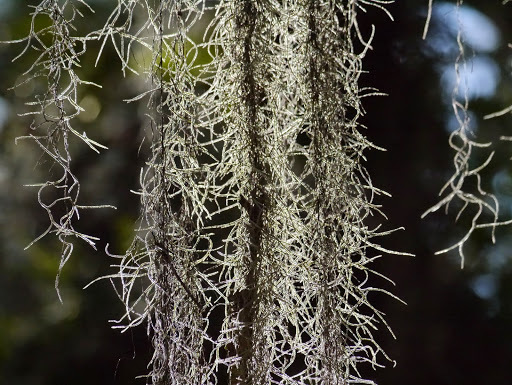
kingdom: Plantae
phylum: Tracheophyta
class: Liliopsida
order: Poales
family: Bromeliaceae
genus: Tillandsia
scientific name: Tillandsia usneoides
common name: Spanish moss
